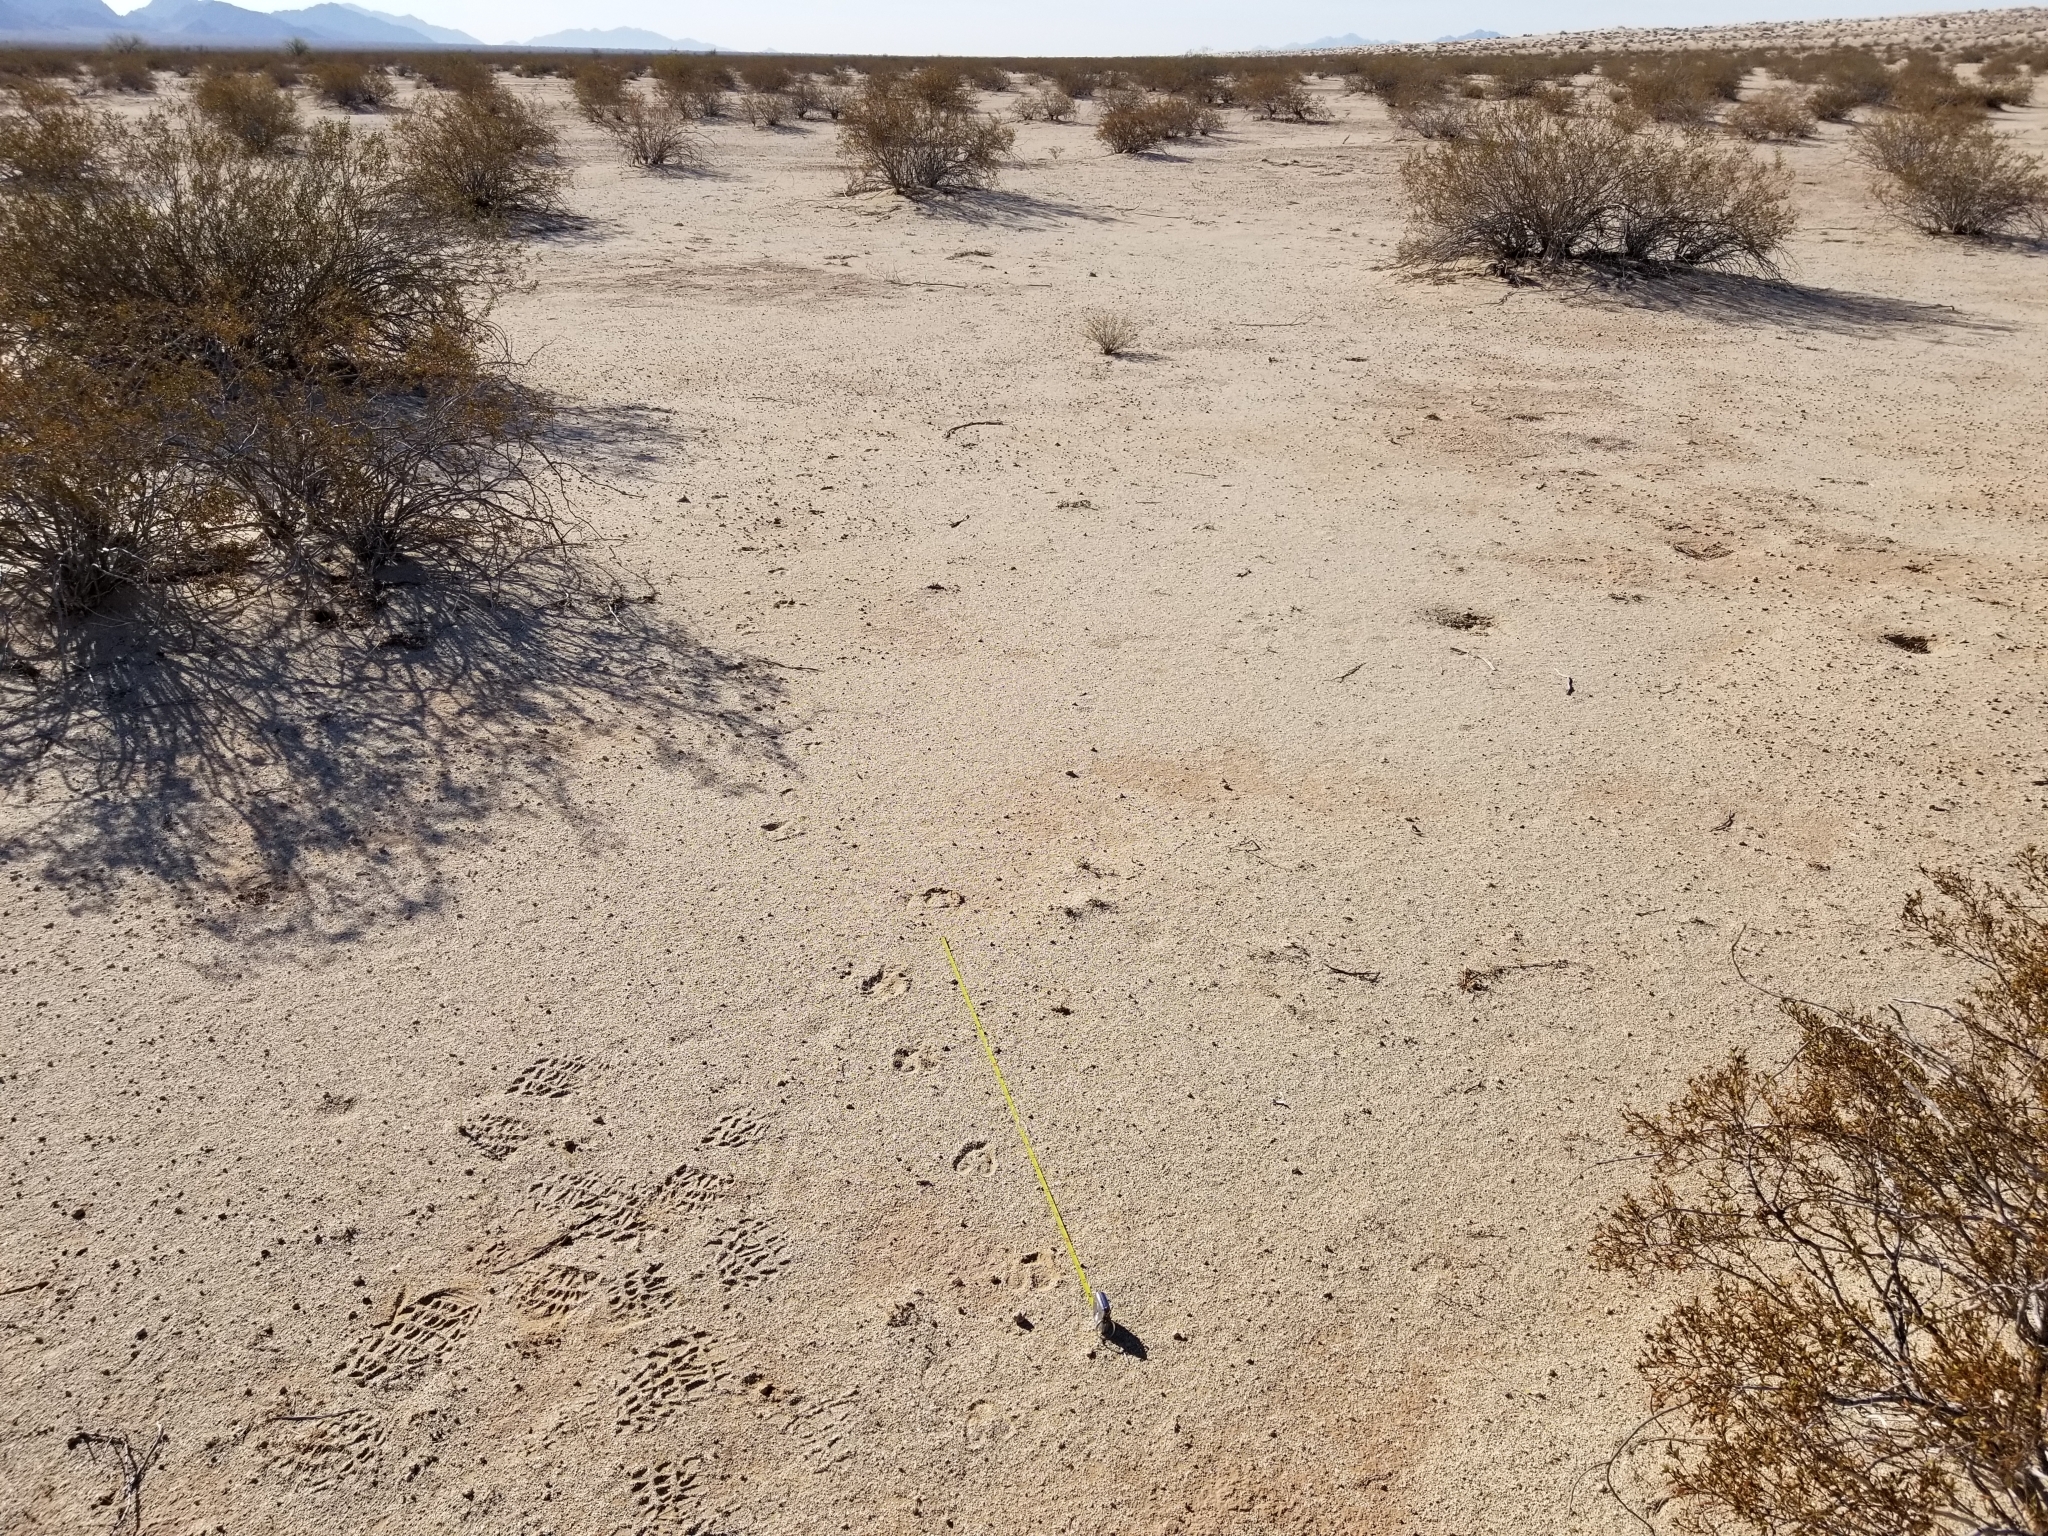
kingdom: Animalia
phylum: Chordata
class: Mammalia
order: Artiodactyla
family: Antilocapridae
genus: Antilocapra
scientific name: Antilocapra americana
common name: Pronghorn
